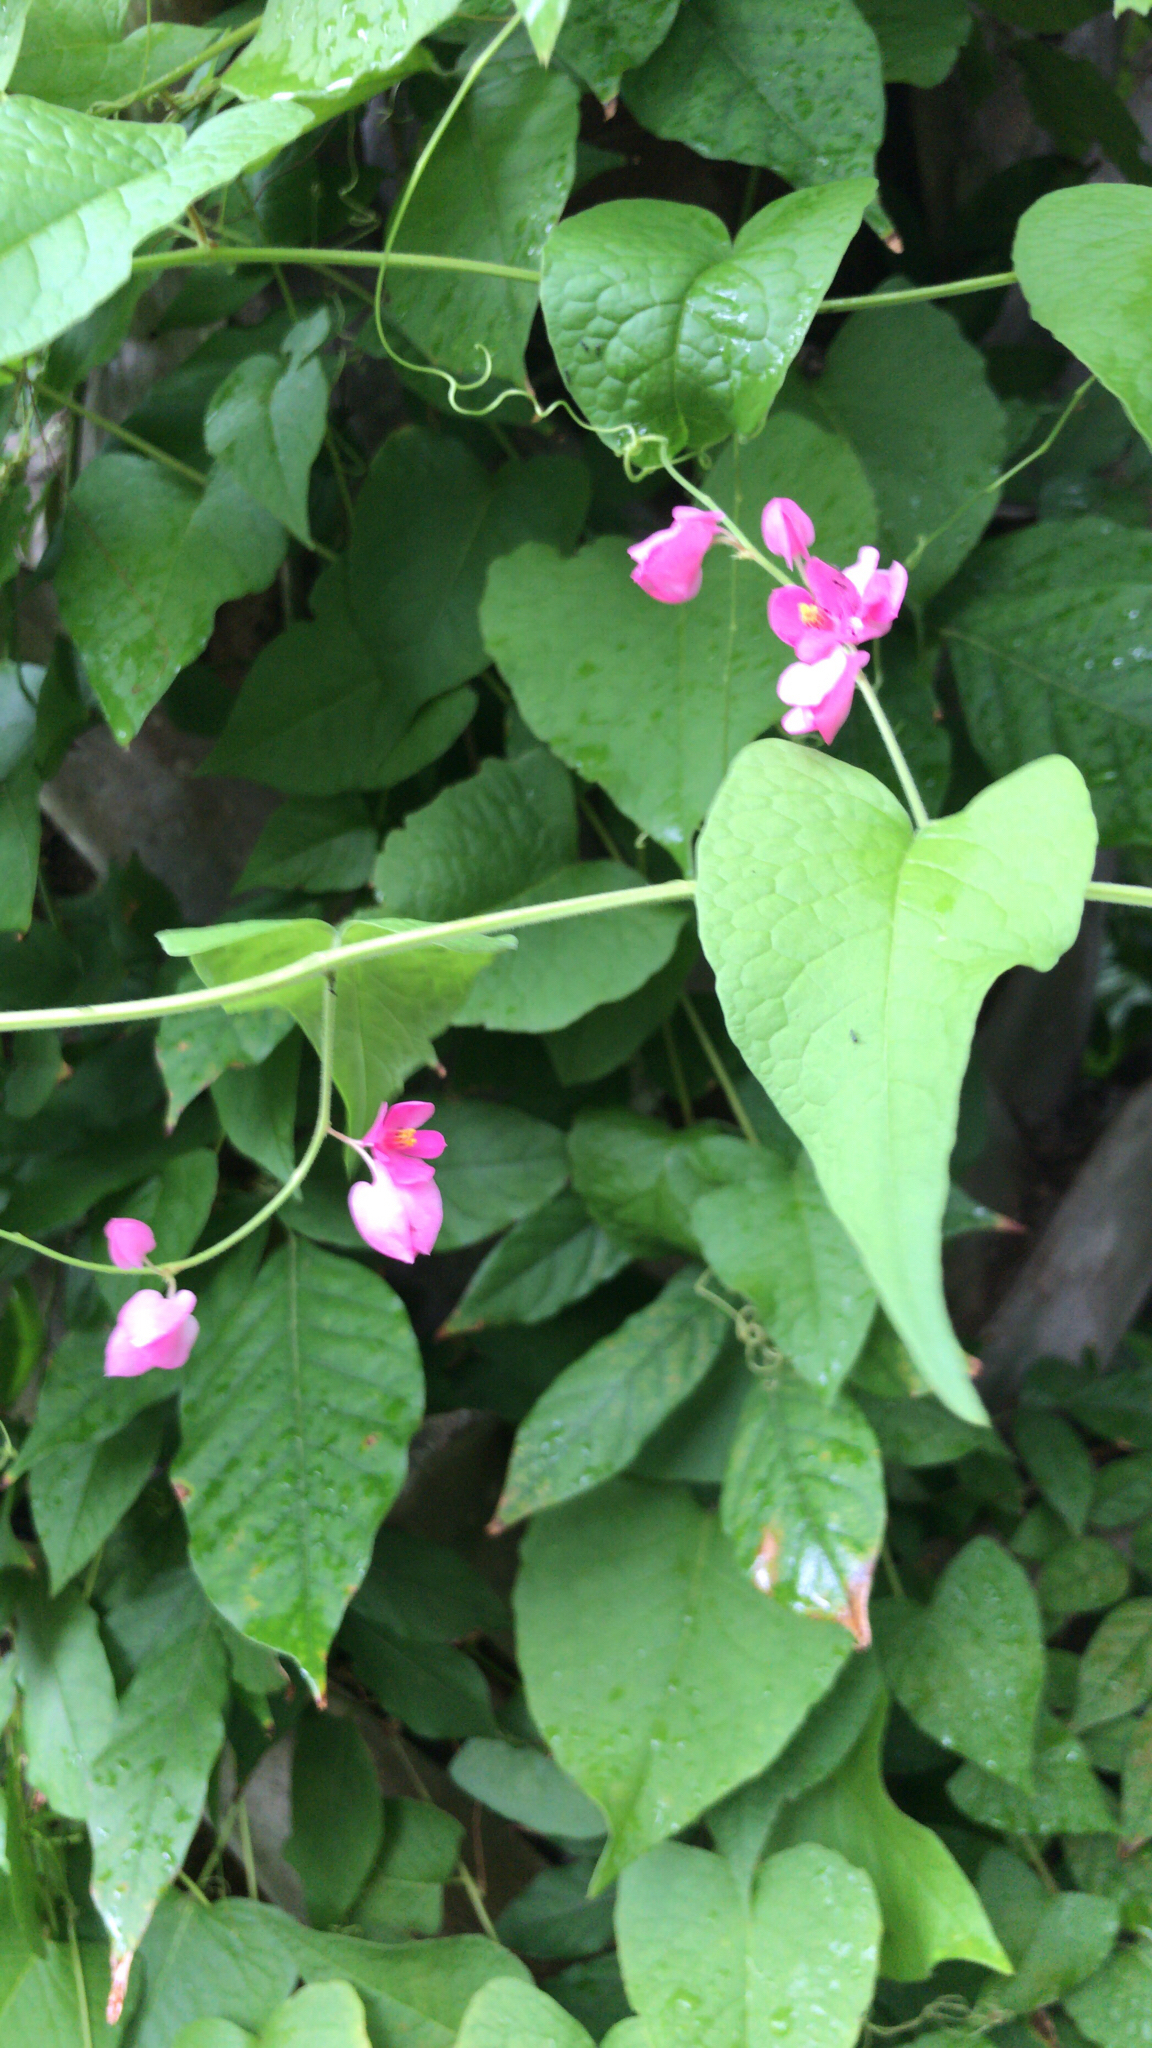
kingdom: Plantae
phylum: Tracheophyta
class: Magnoliopsida
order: Caryophyllales
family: Polygonaceae
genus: Antigonon
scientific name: Antigonon leptopus
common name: Coral vine
